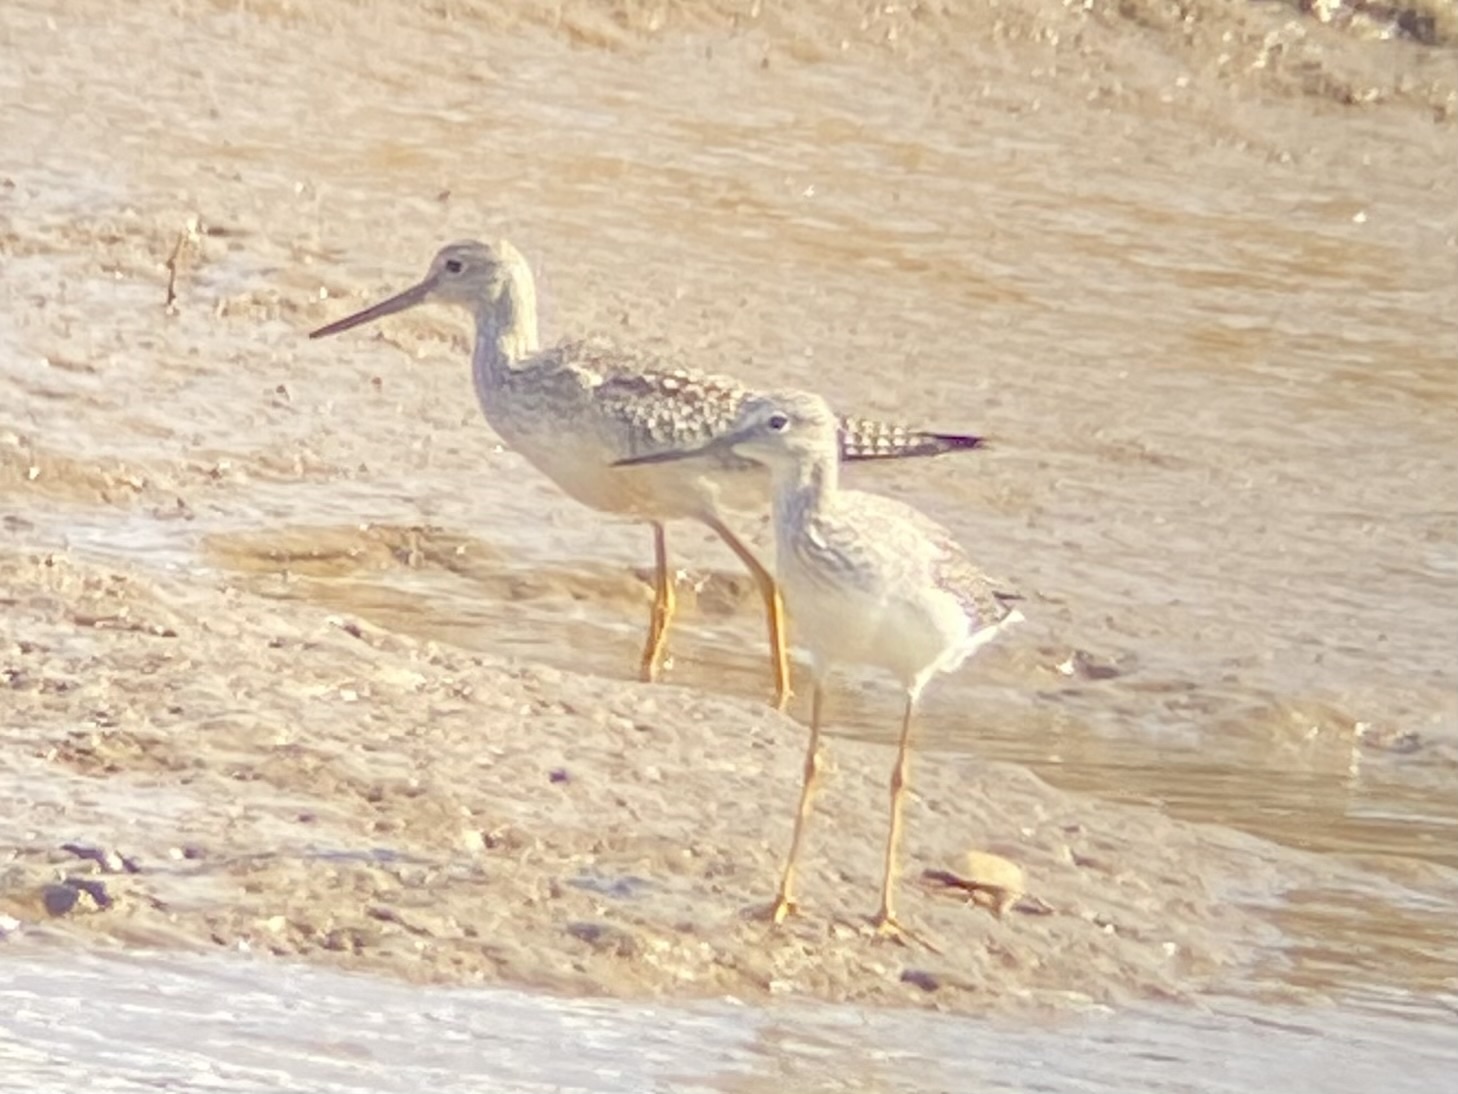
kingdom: Animalia
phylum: Chordata
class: Aves
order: Charadriiformes
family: Scolopacidae
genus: Tringa
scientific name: Tringa melanoleuca
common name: Greater yellowlegs
